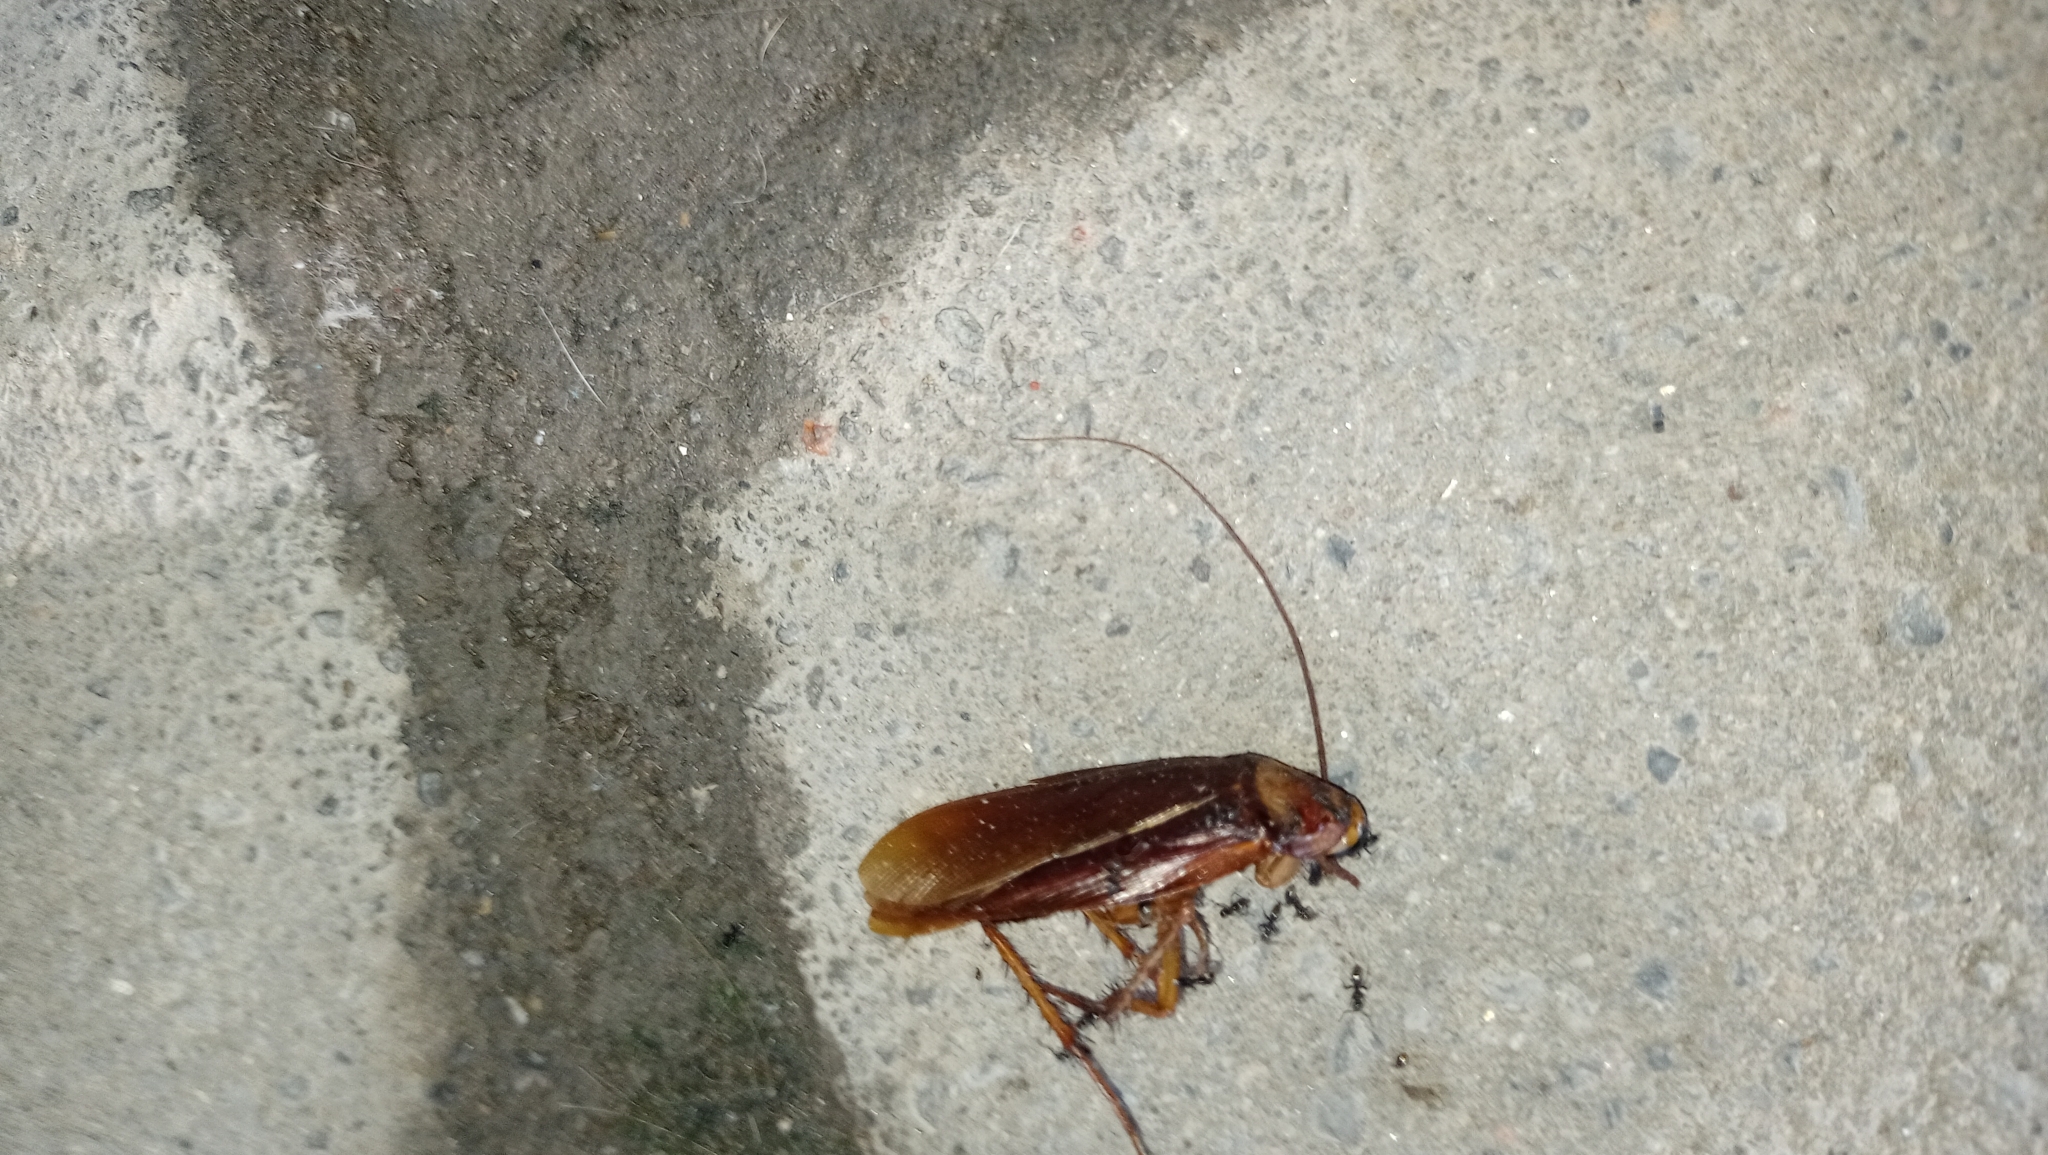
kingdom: Animalia
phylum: Arthropoda
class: Insecta
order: Blattodea
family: Blattidae
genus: Periplaneta
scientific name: Periplaneta americana
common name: American cockroach
